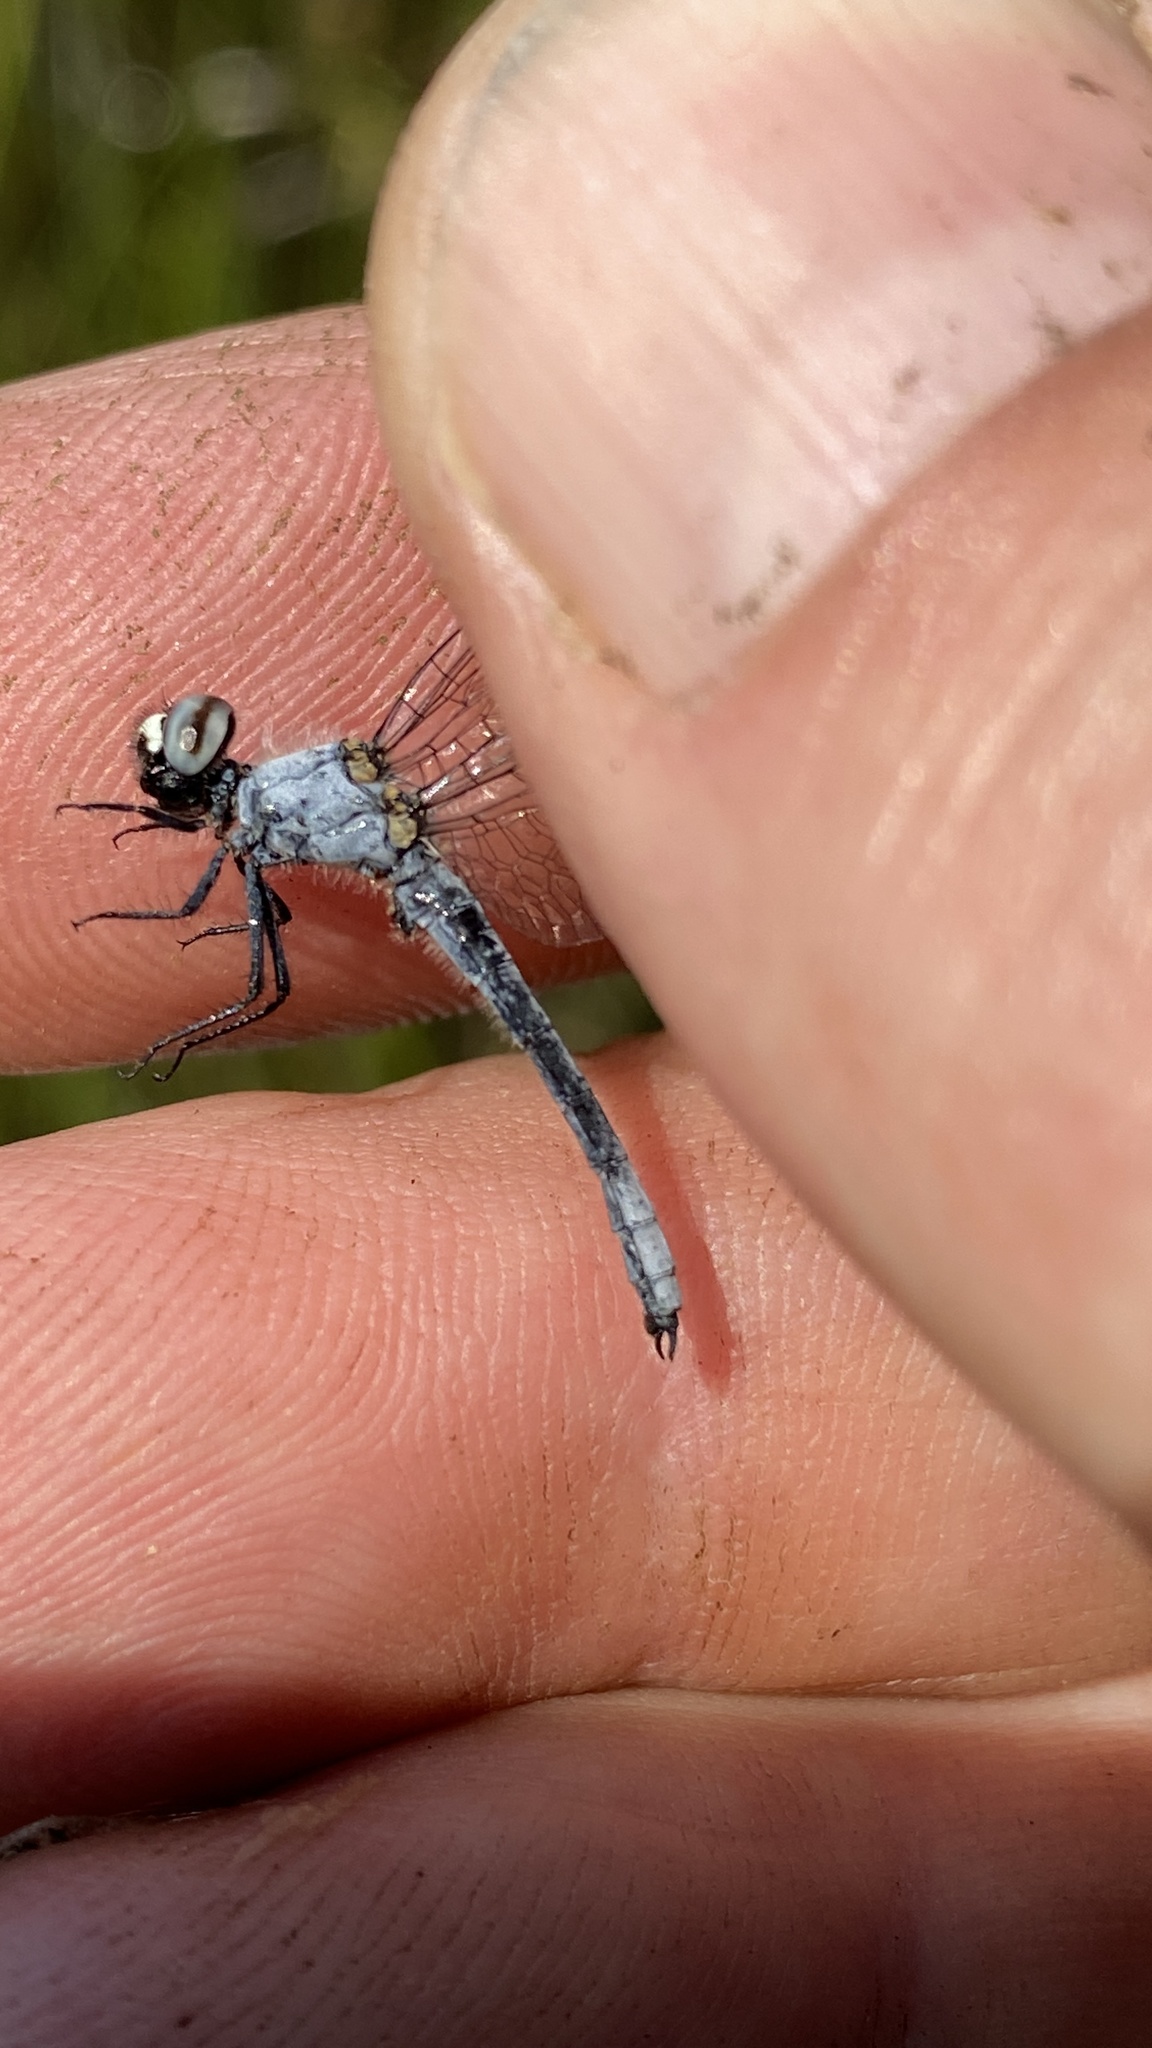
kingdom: Animalia
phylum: Arthropoda
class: Insecta
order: Odonata
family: Libellulidae
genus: Nannothemis
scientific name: Nannothemis bella
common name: Elfin skimmer
